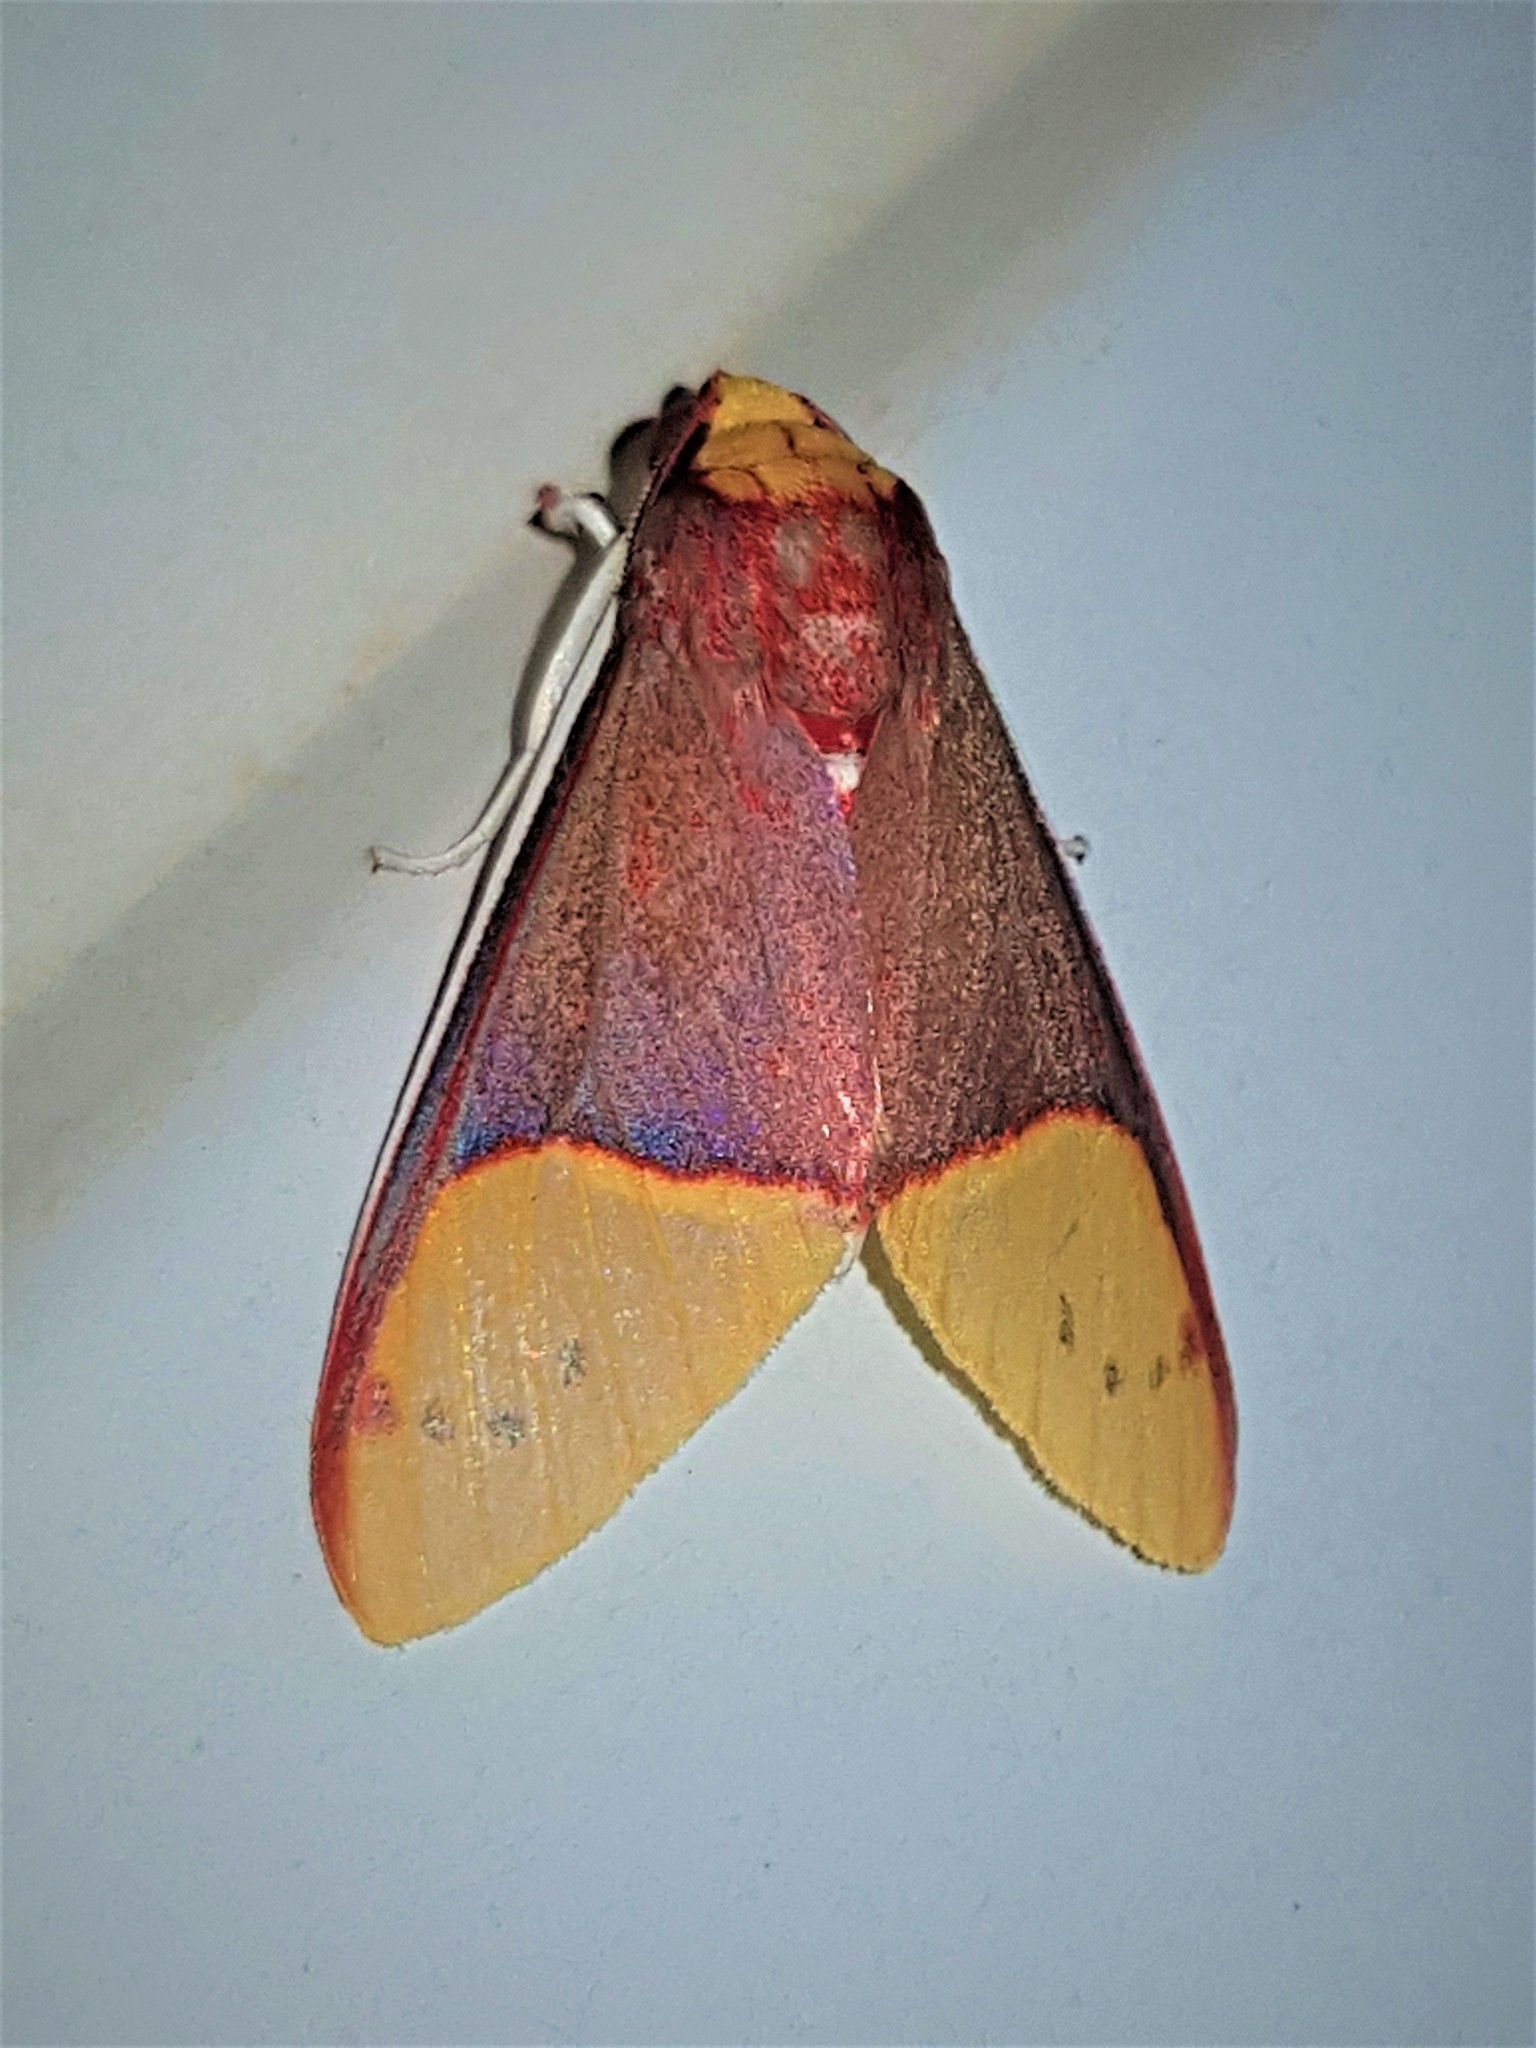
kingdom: Animalia
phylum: Arthropoda
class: Insecta
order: Lepidoptera
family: Erebidae
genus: Evius
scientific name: Evius albicoxae
